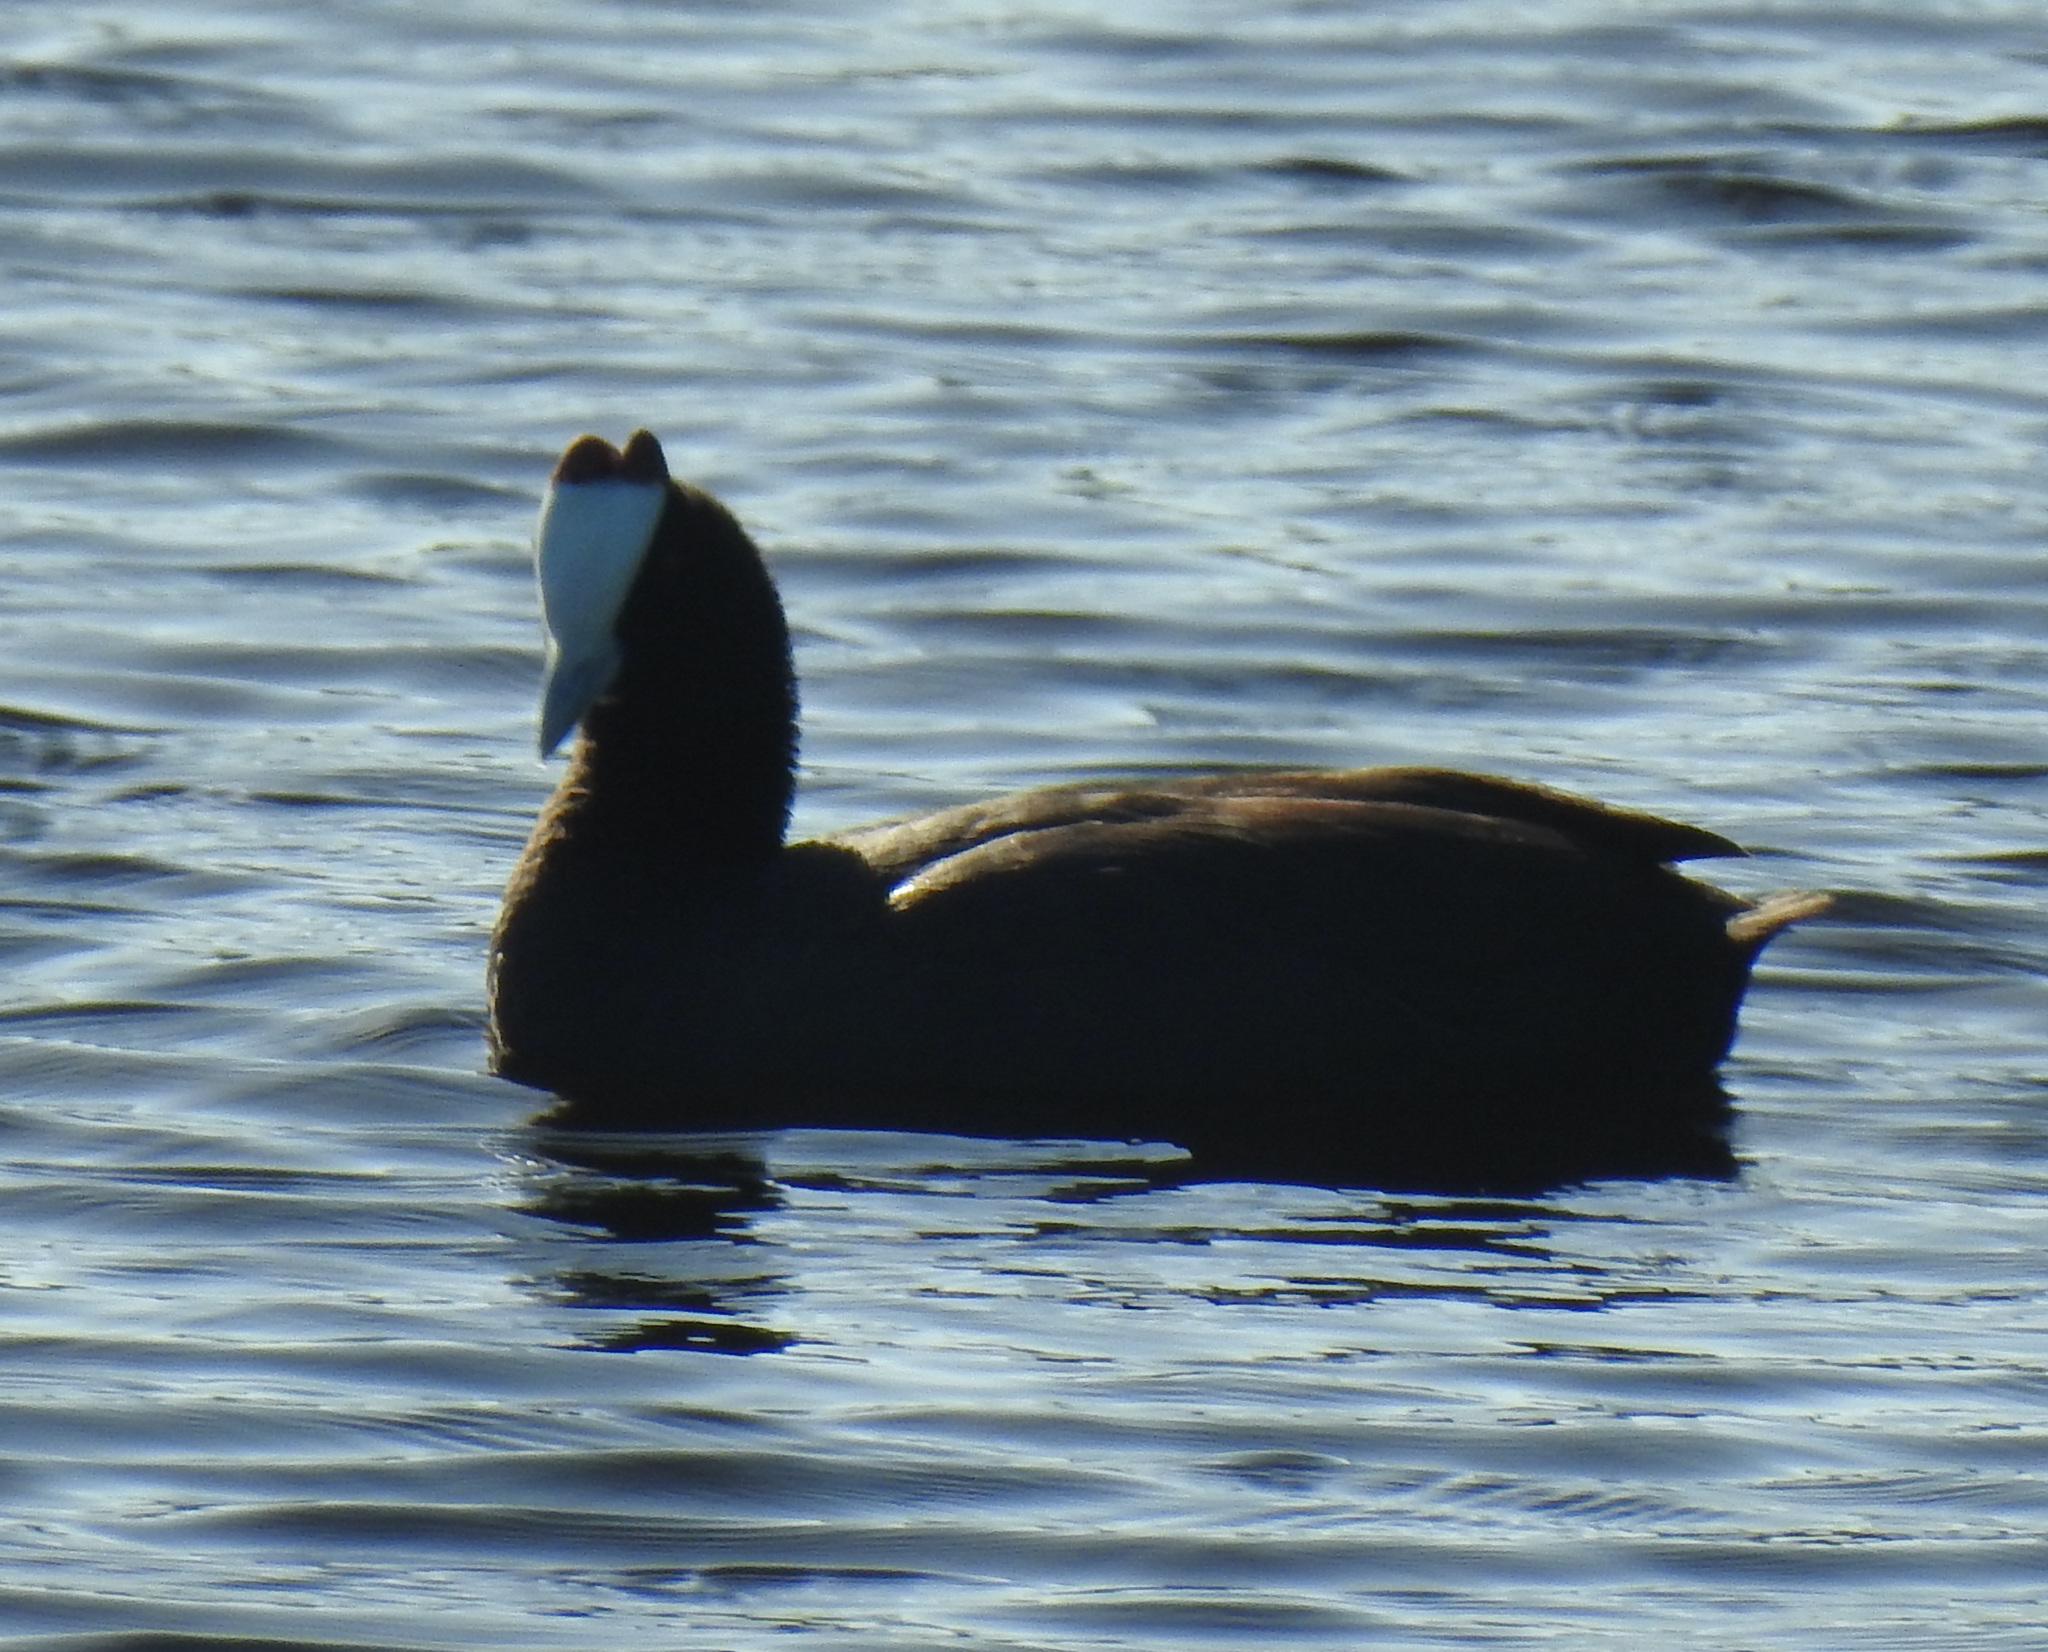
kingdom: Animalia
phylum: Chordata
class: Aves
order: Gruiformes
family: Rallidae
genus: Fulica
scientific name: Fulica cristata
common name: Red-knobbed coot
